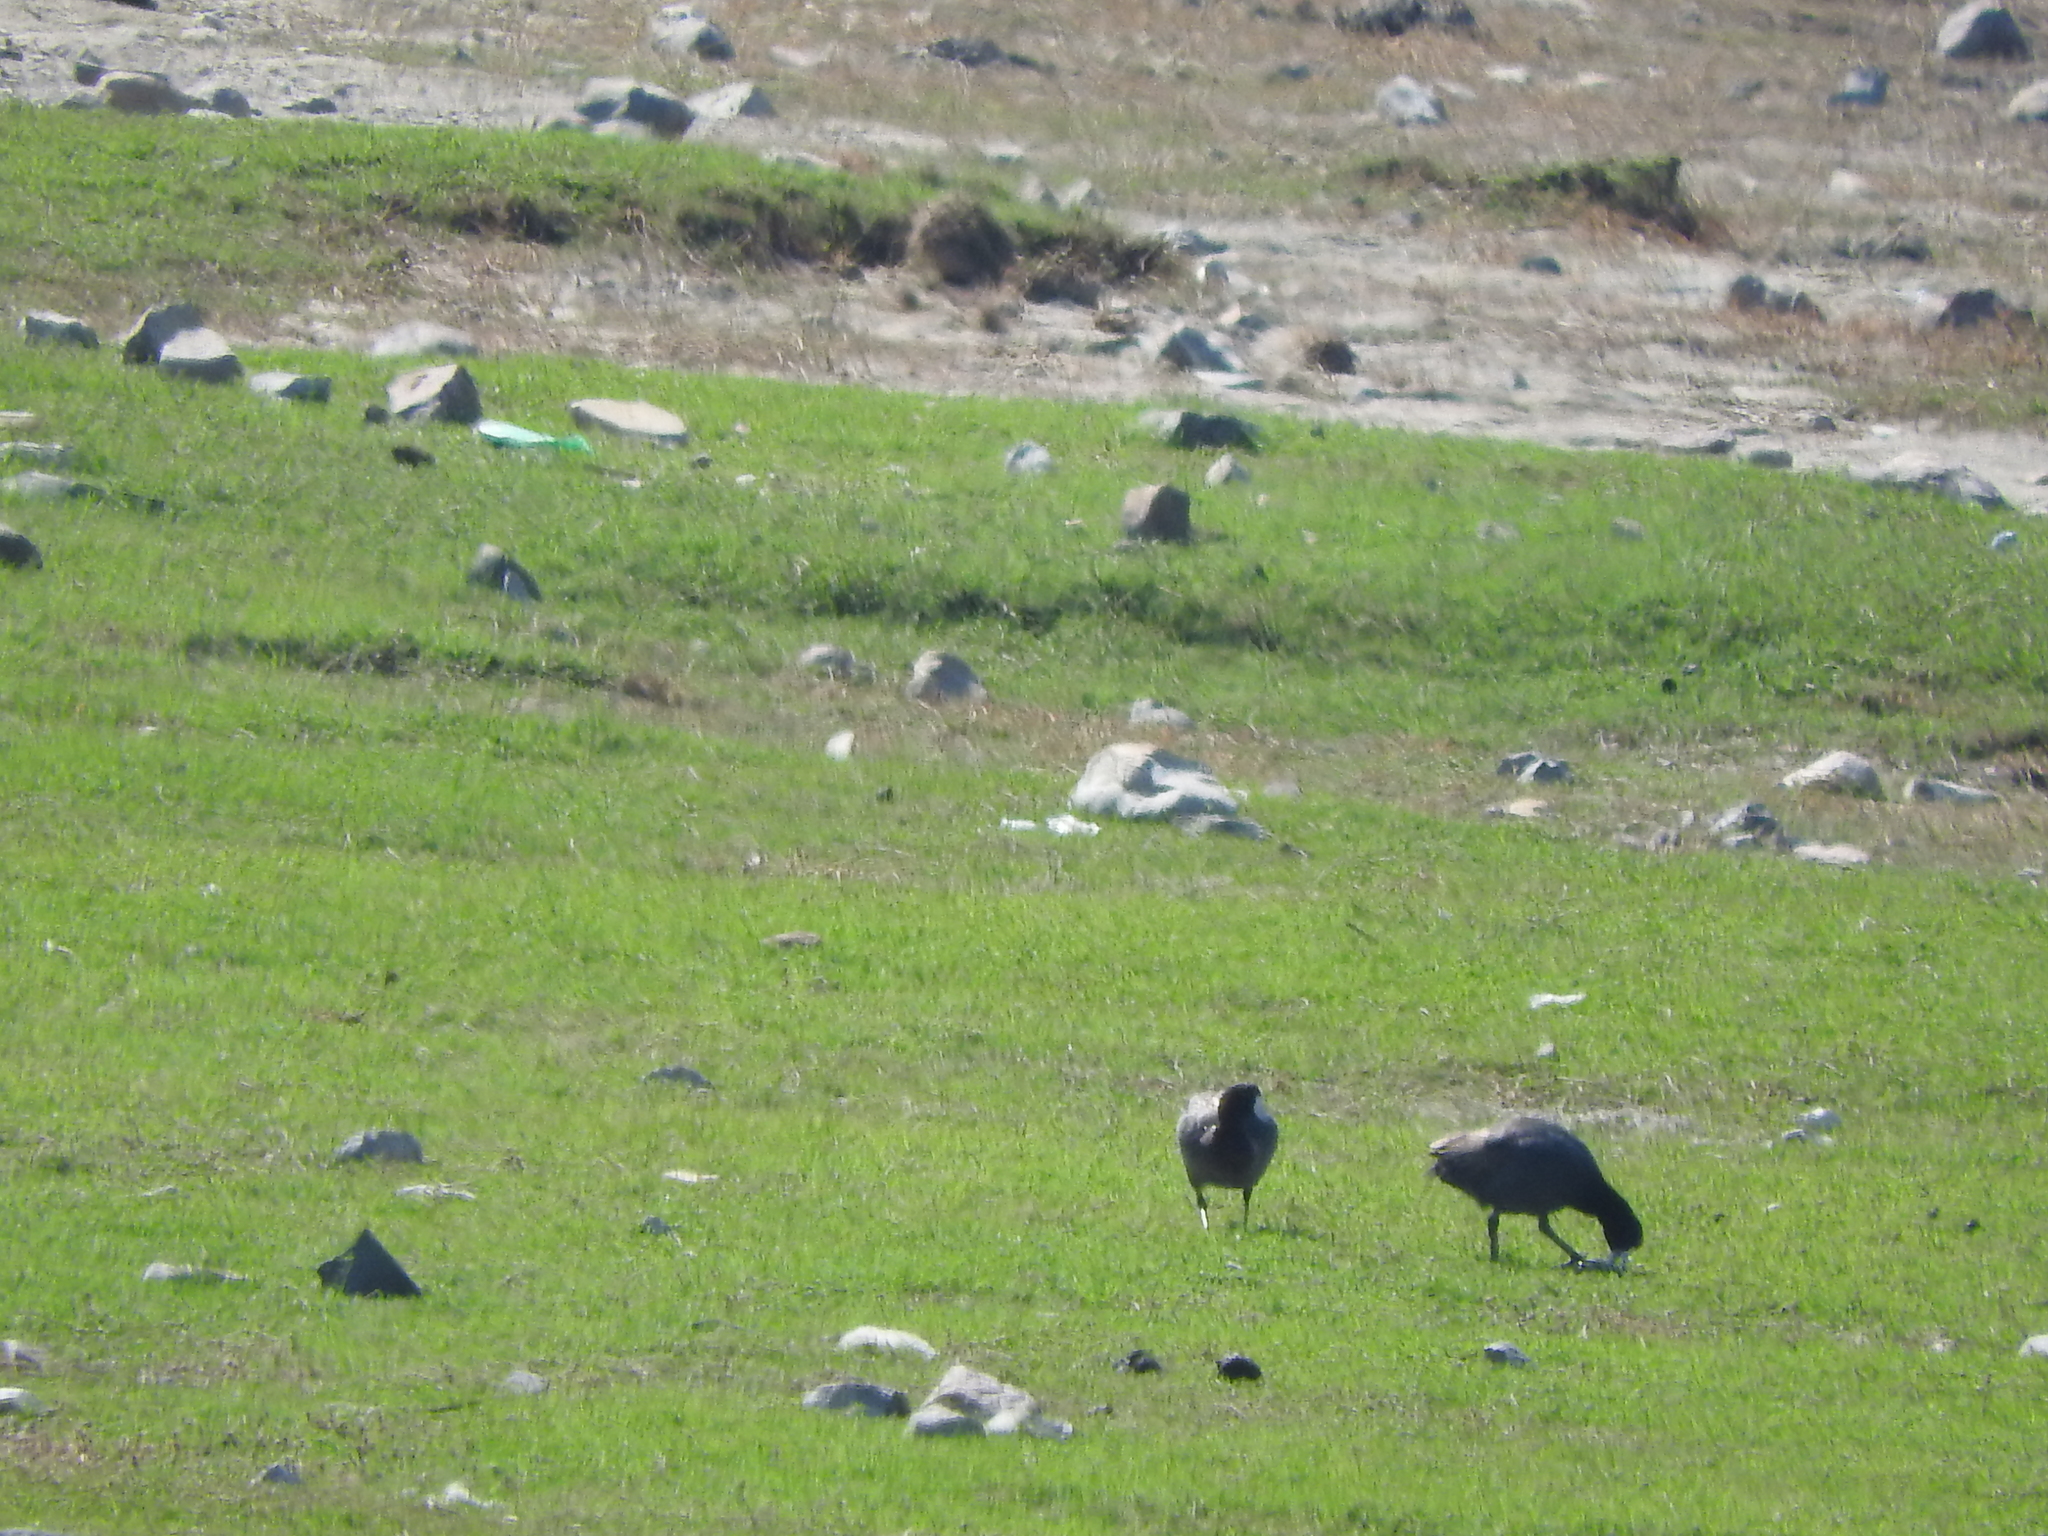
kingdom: Animalia
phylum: Chordata
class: Aves
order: Gruiformes
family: Rallidae
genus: Fulica
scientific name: Fulica americana
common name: American coot
